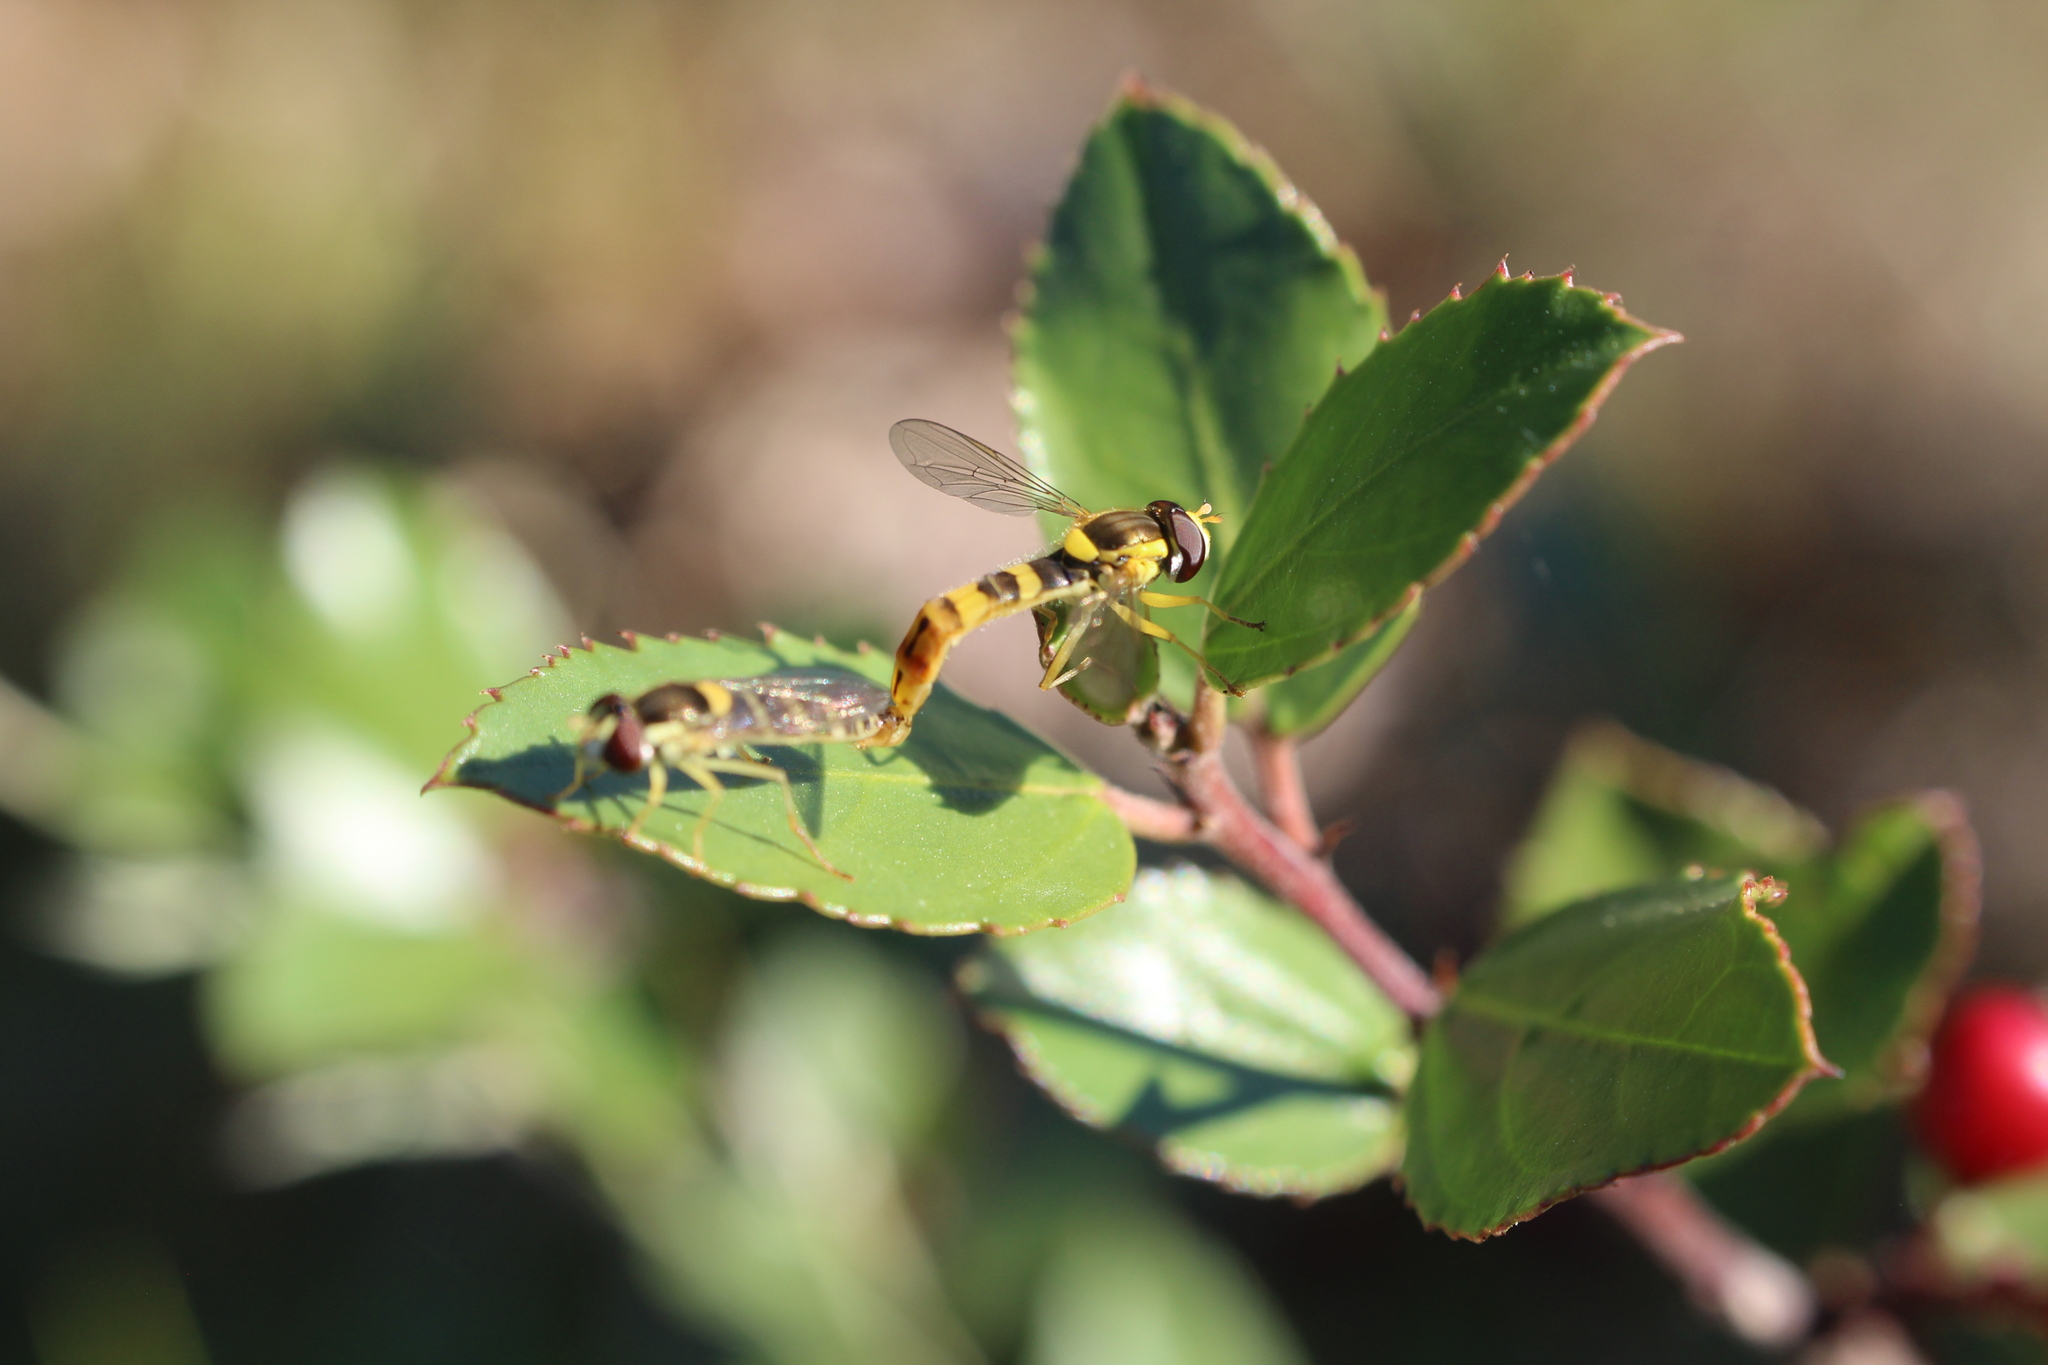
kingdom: Animalia
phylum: Arthropoda
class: Insecta
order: Diptera
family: Syrphidae
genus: Sphaerophoria
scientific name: Sphaerophoria scripta
